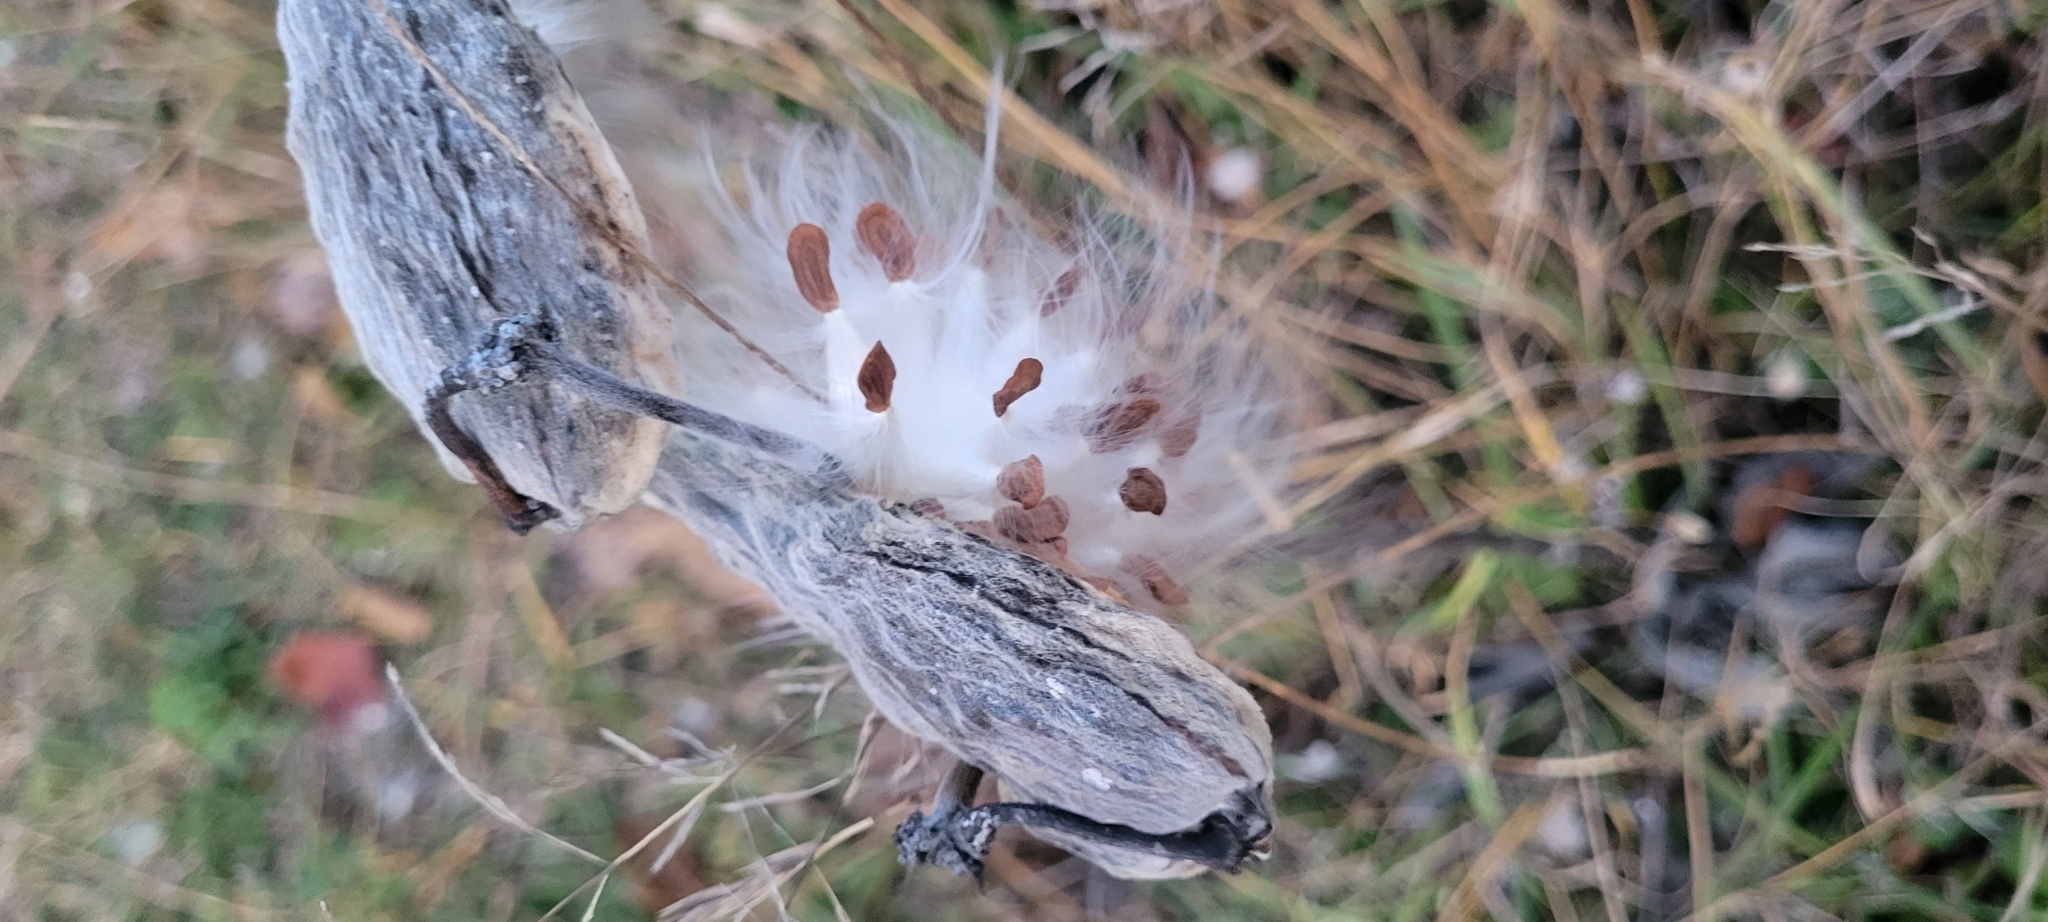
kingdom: Plantae
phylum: Tracheophyta
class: Magnoliopsida
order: Gentianales
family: Apocynaceae
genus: Asclepias
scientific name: Asclepias syriaca
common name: Common milkweed
